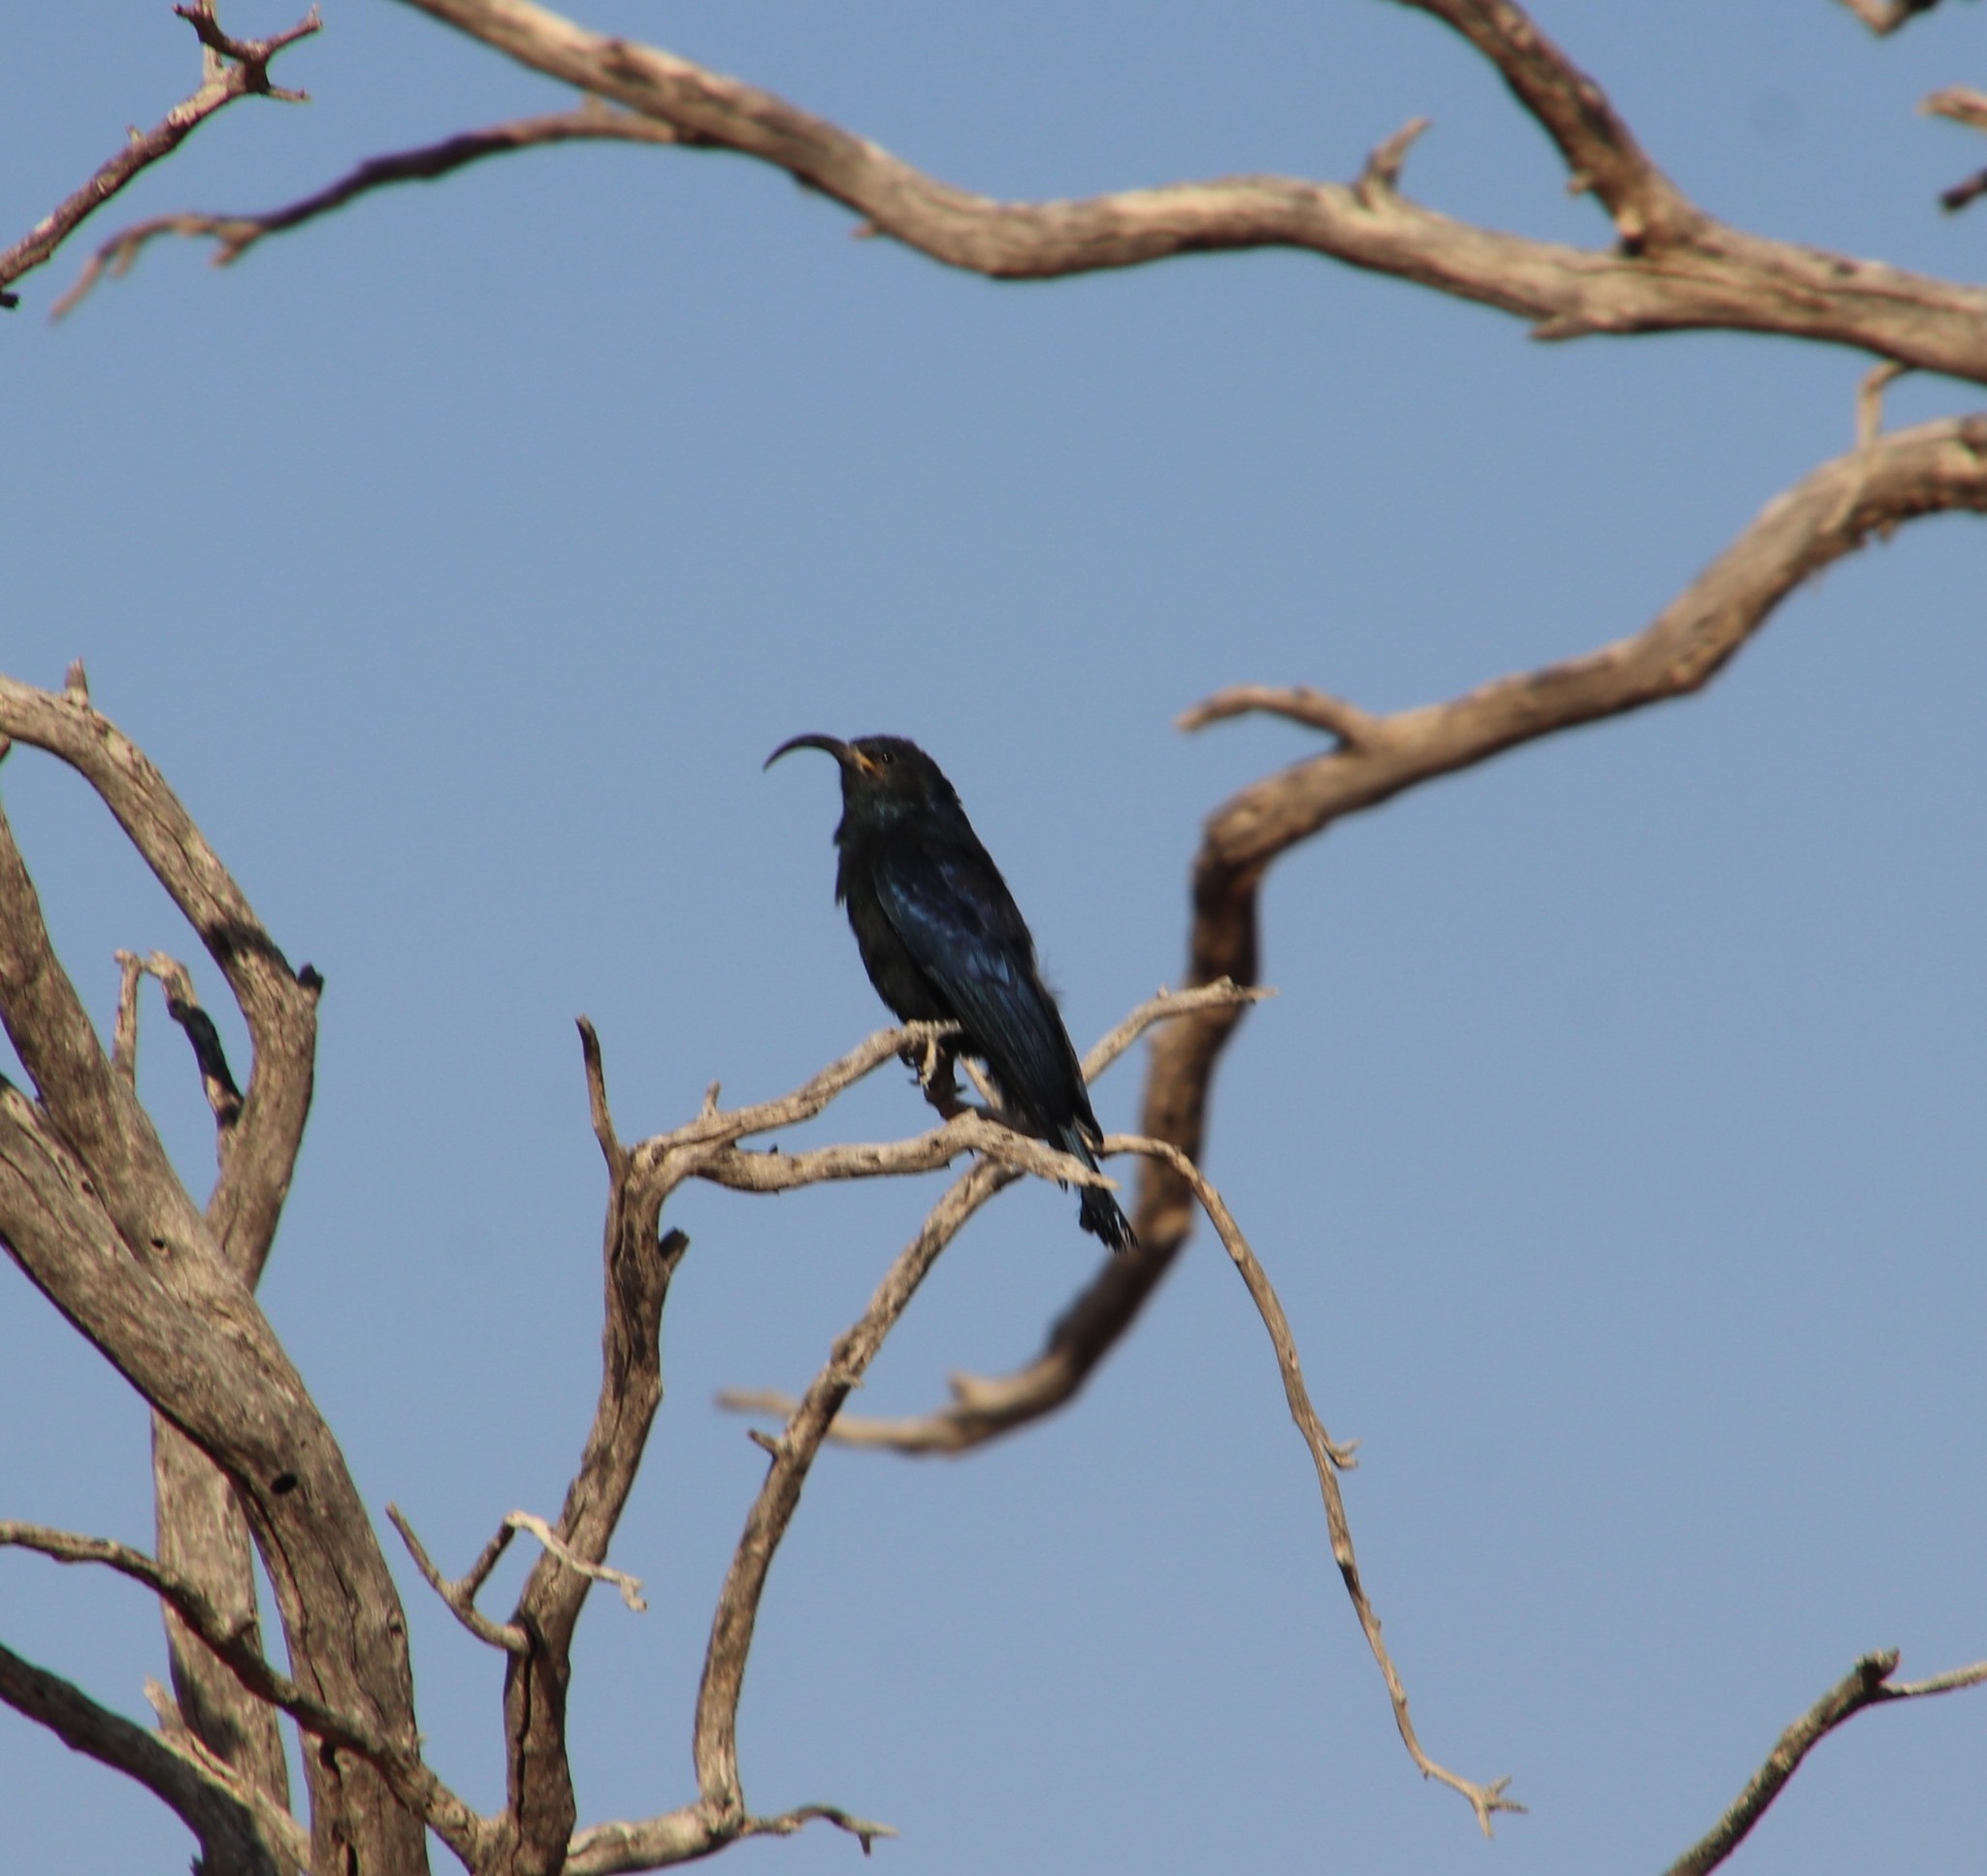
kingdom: Animalia
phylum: Chordata
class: Aves
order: Bucerotiformes
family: Phoeniculidae
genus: Rhinopomastus
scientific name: Rhinopomastus cyanomelas
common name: Common scimitarbill
